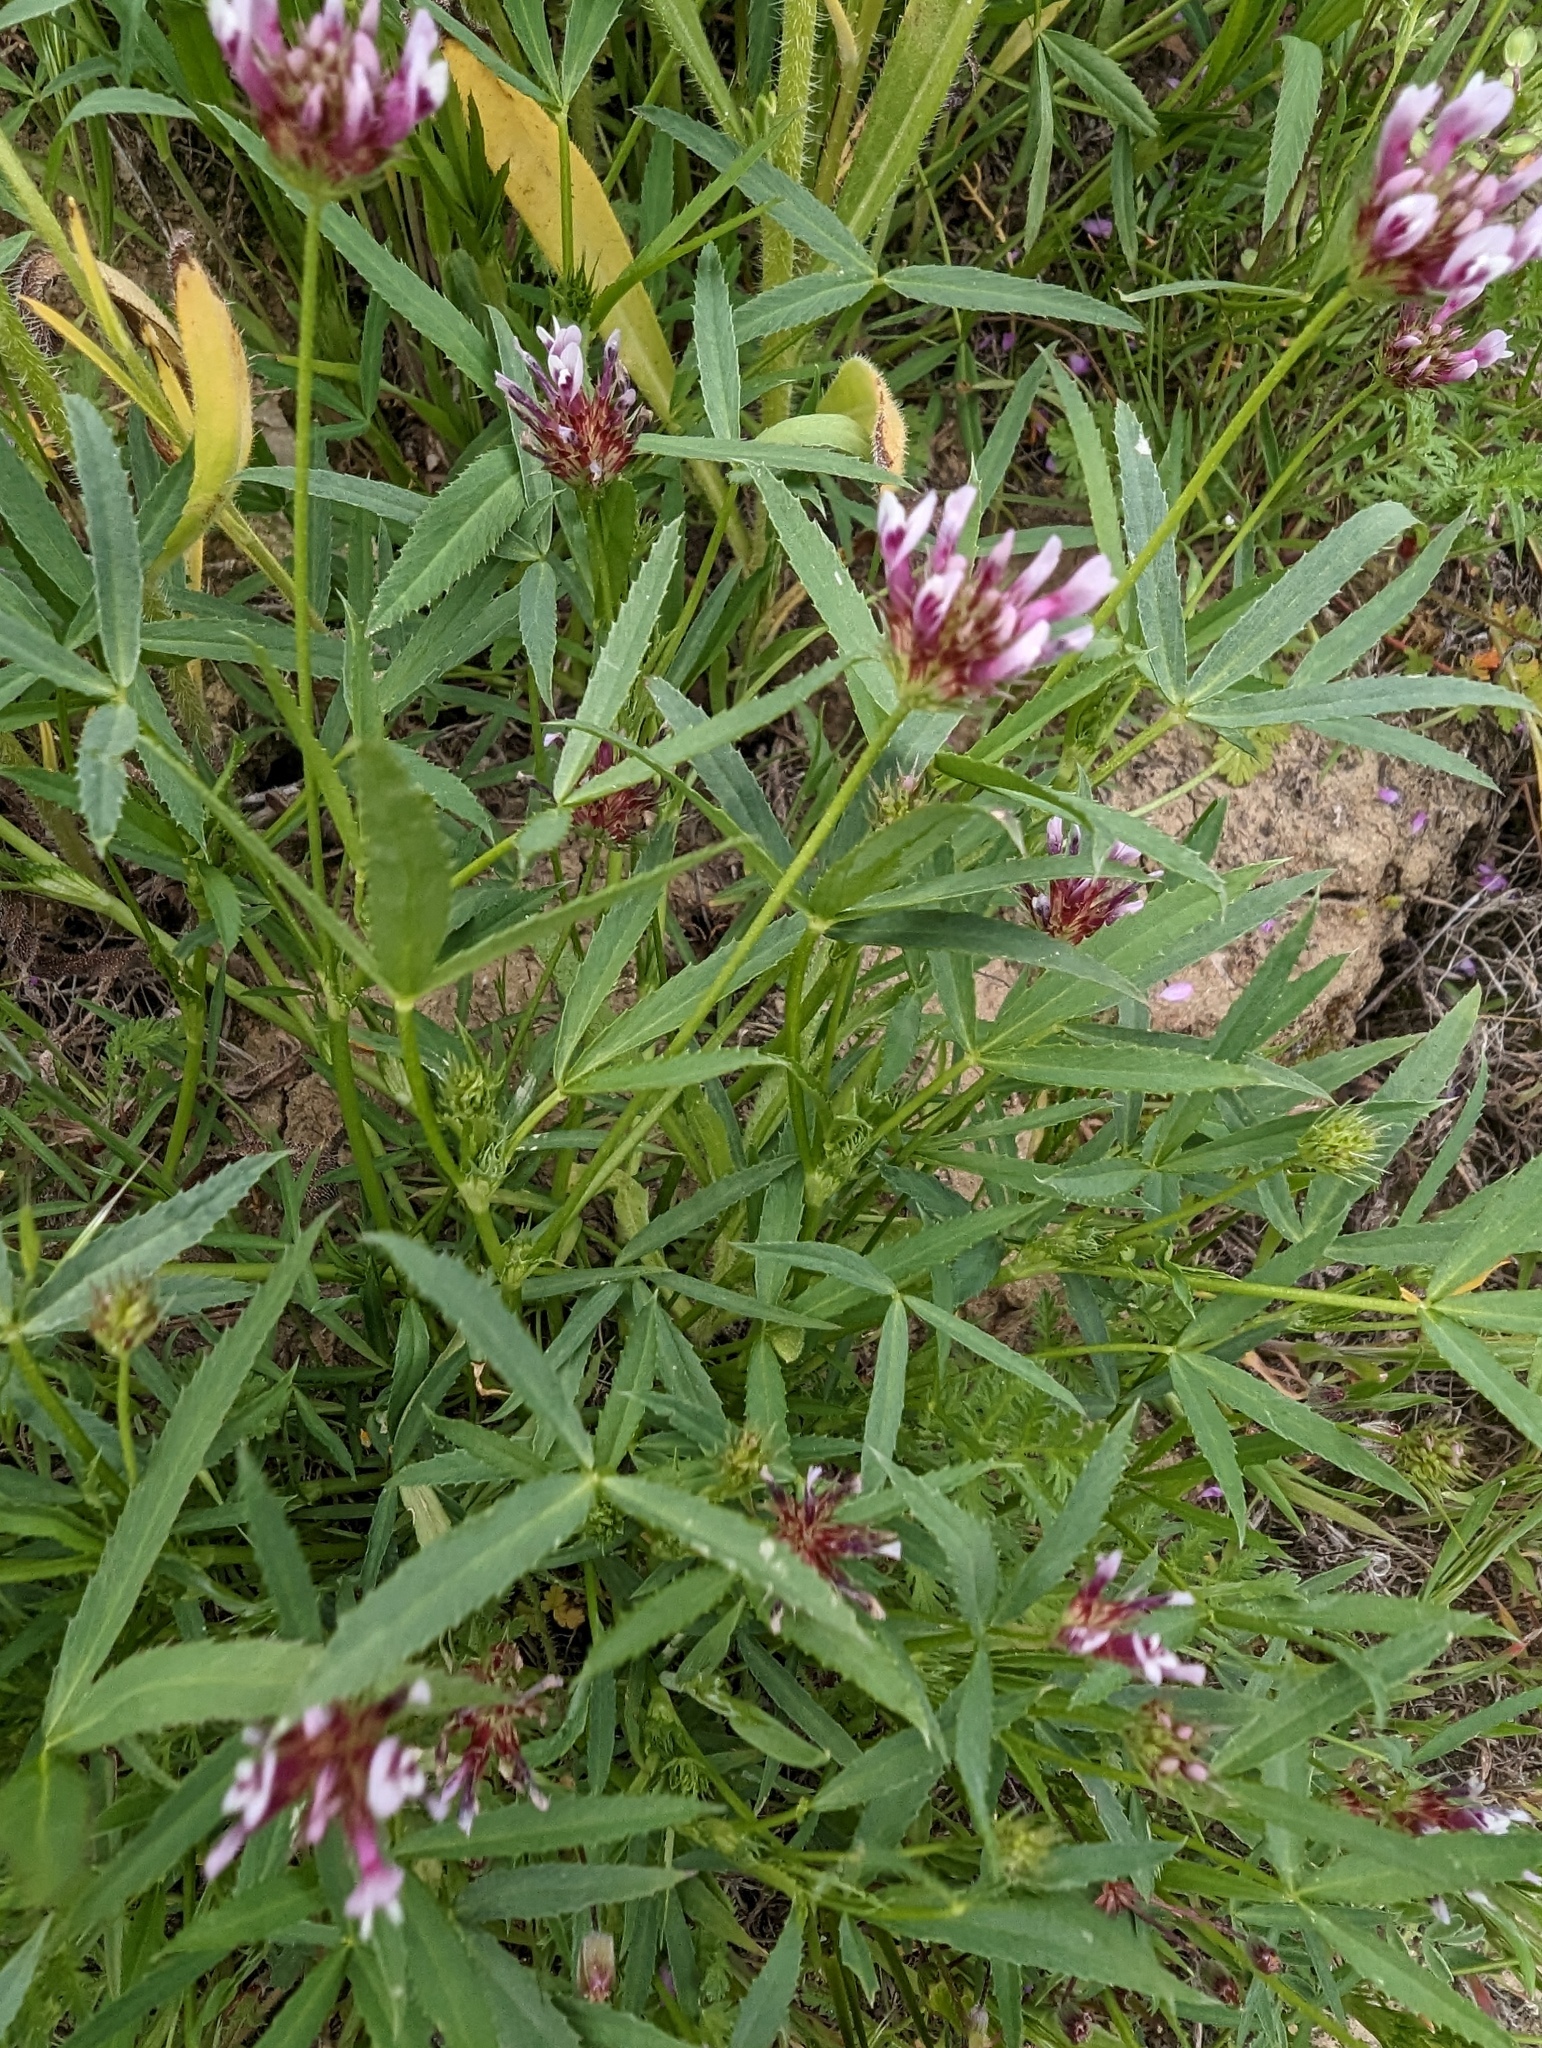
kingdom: Plantae
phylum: Tracheophyta
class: Magnoliopsida
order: Fabales
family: Fabaceae
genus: Trifolium
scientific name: Trifolium willdenovii
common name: Tomcat clover
